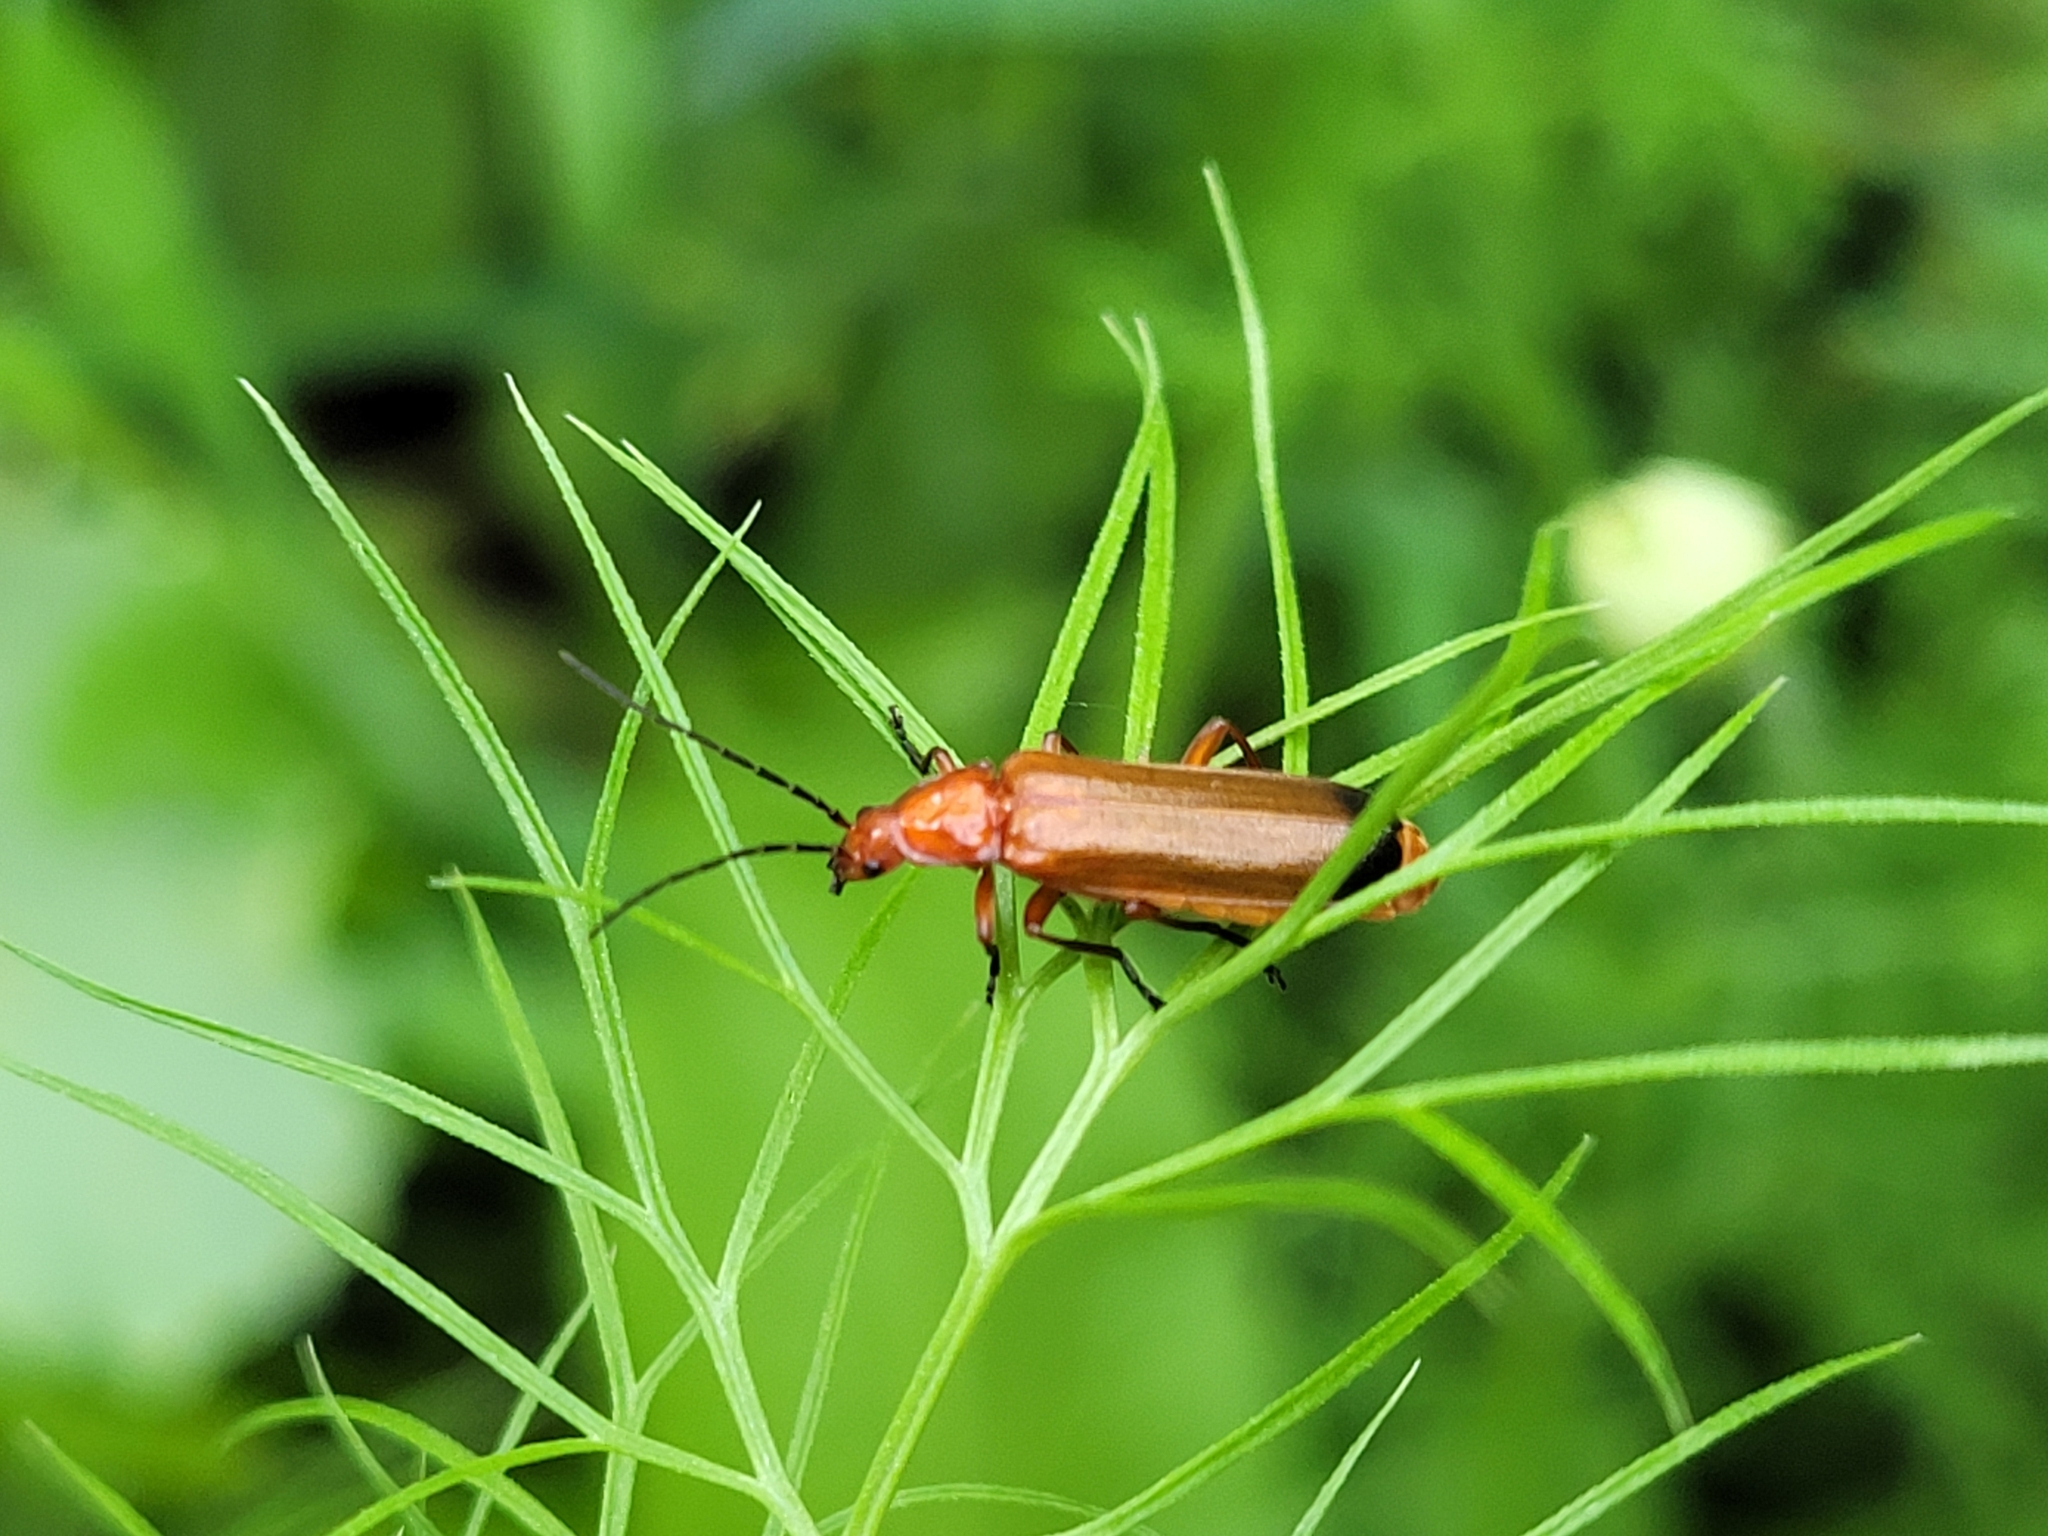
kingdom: Animalia
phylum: Arthropoda
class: Insecta
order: Coleoptera
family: Cantharidae
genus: Rhagonycha
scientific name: Rhagonycha fulva
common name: Common red soldier beetle
